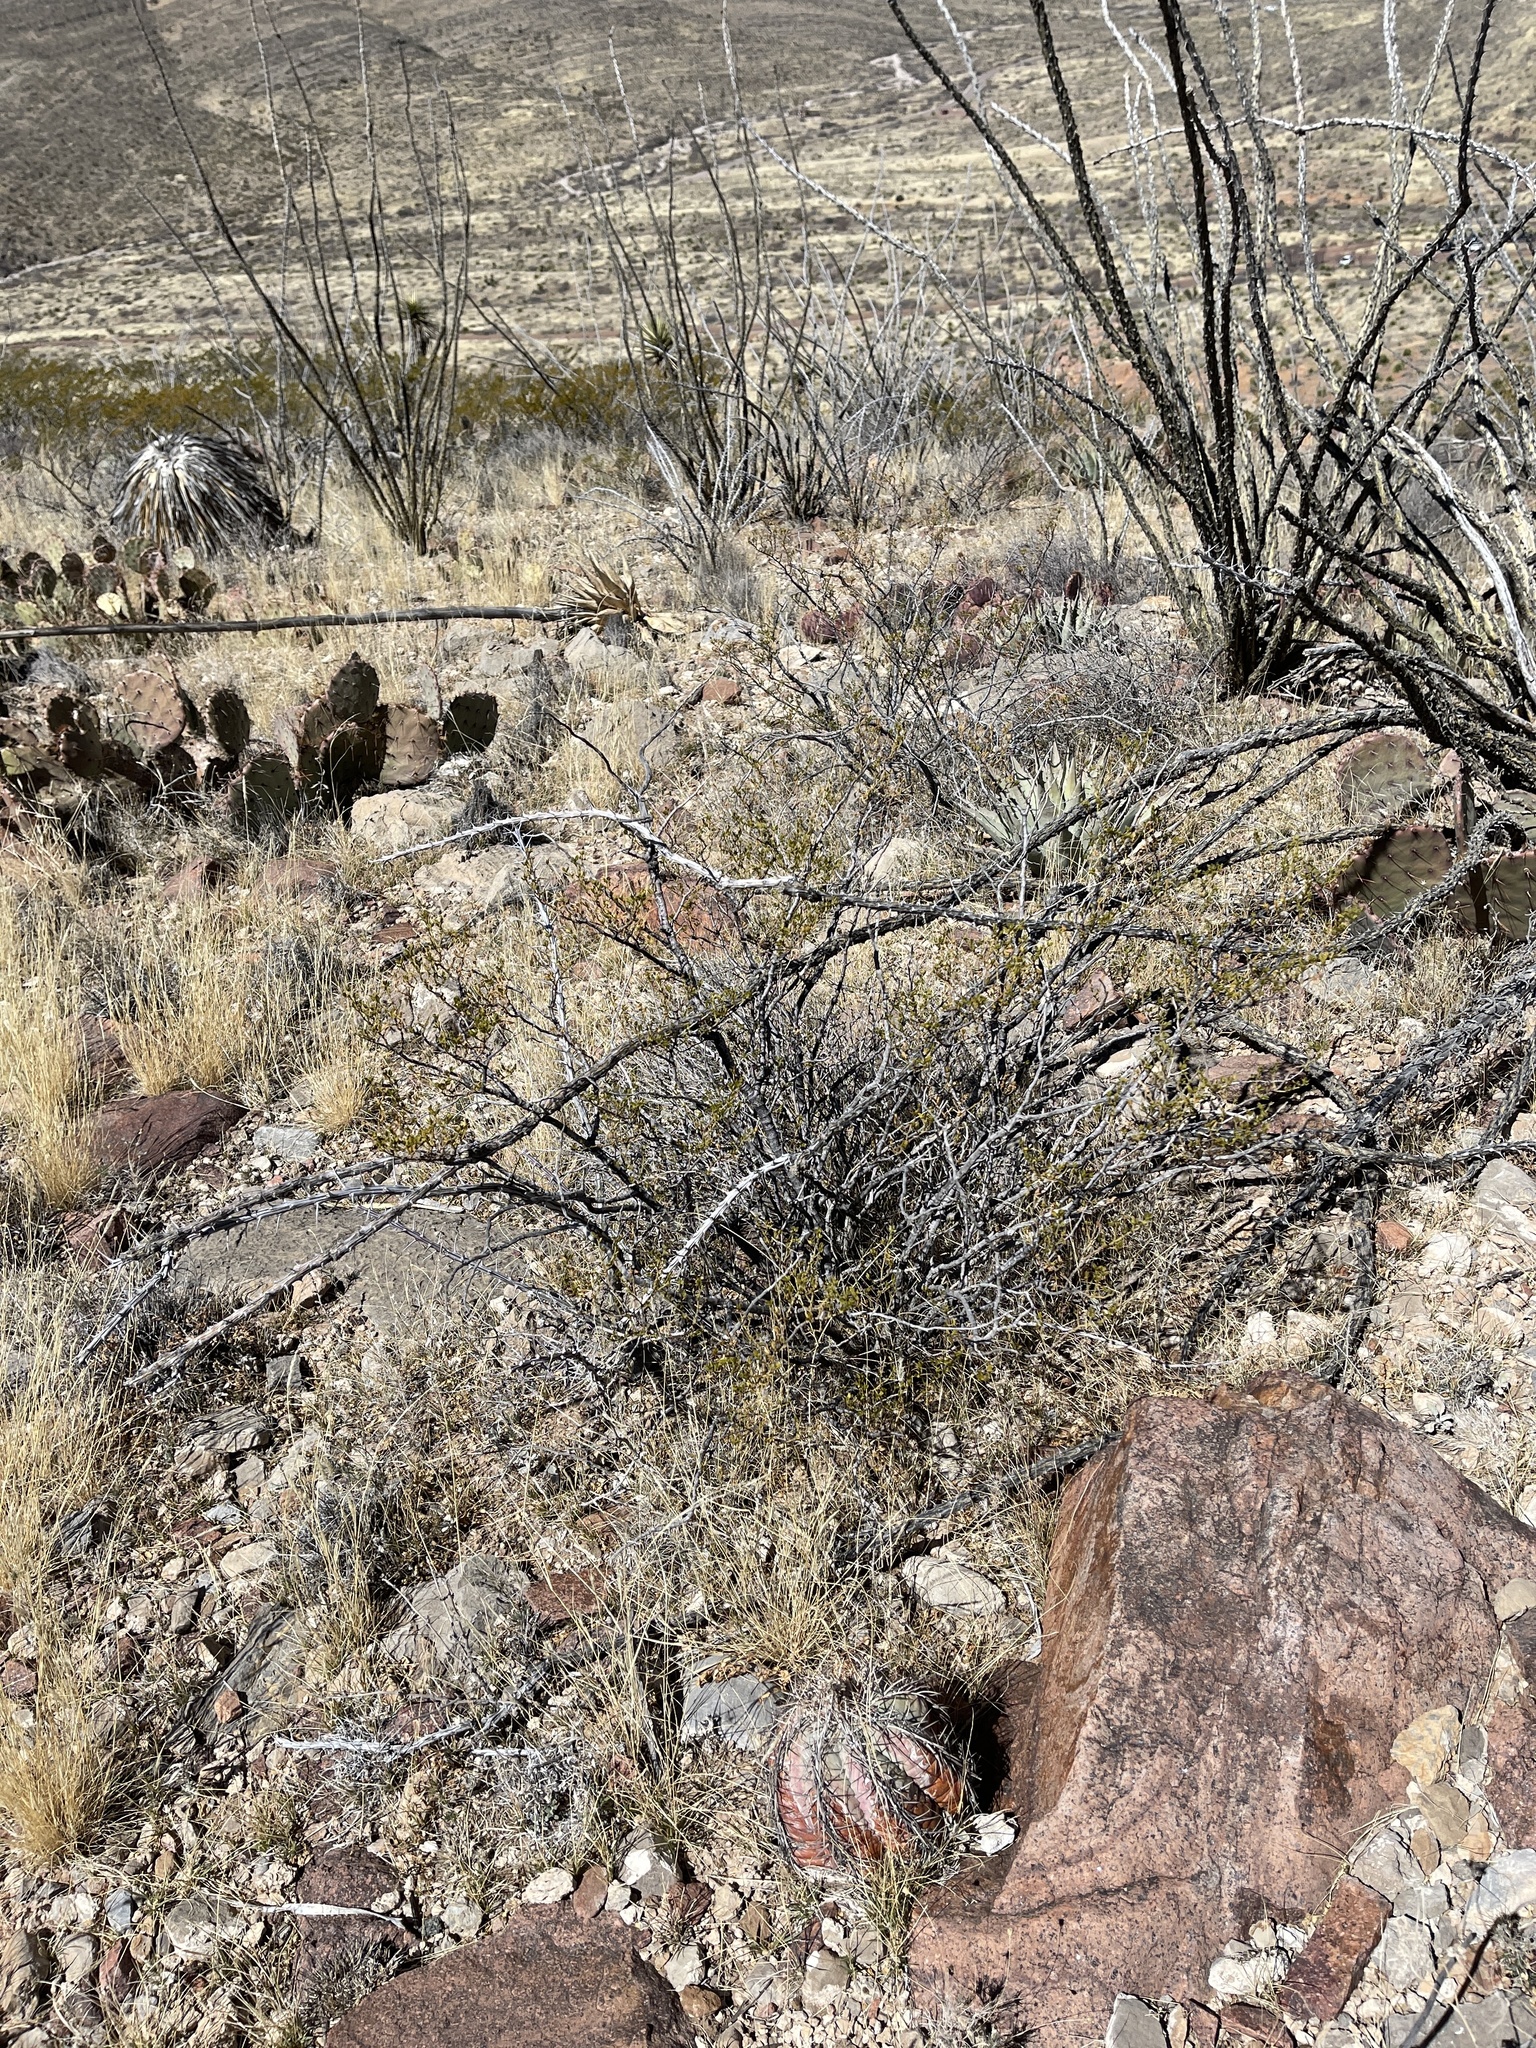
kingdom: Plantae
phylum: Tracheophyta
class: Magnoliopsida
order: Zygophyllales
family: Zygophyllaceae
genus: Larrea
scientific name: Larrea tridentata
